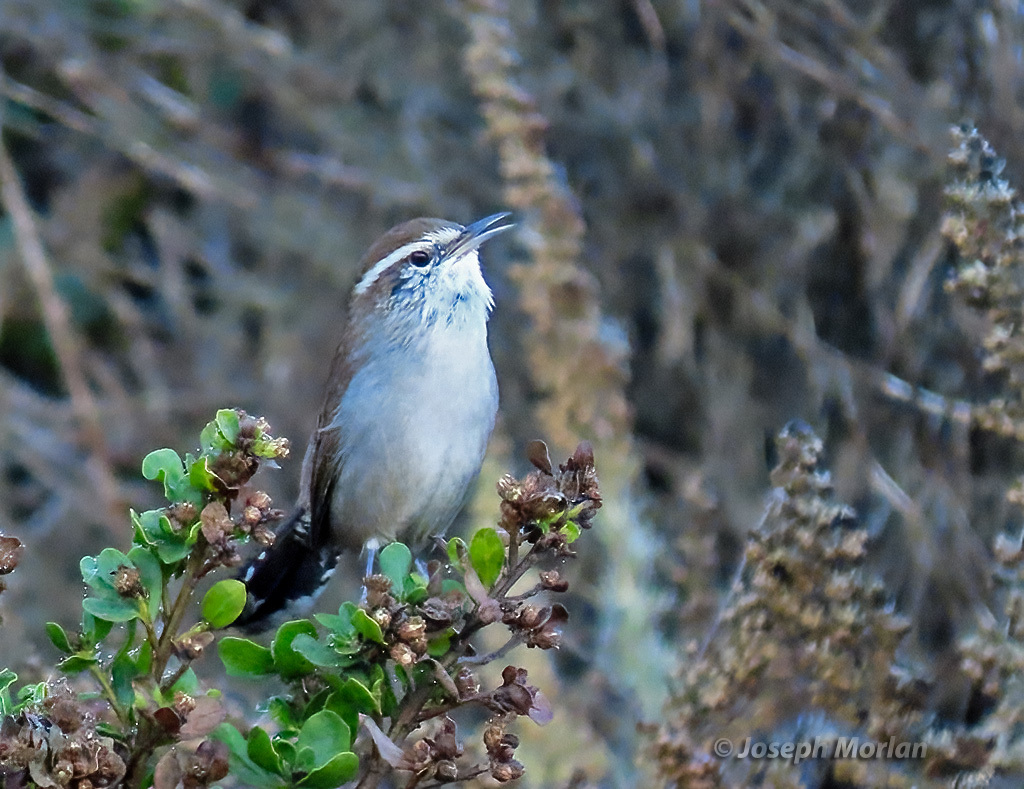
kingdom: Animalia
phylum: Chordata
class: Aves
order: Passeriformes
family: Troglodytidae
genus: Thryomanes
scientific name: Thryomanes bewickii
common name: Bewick's wren
